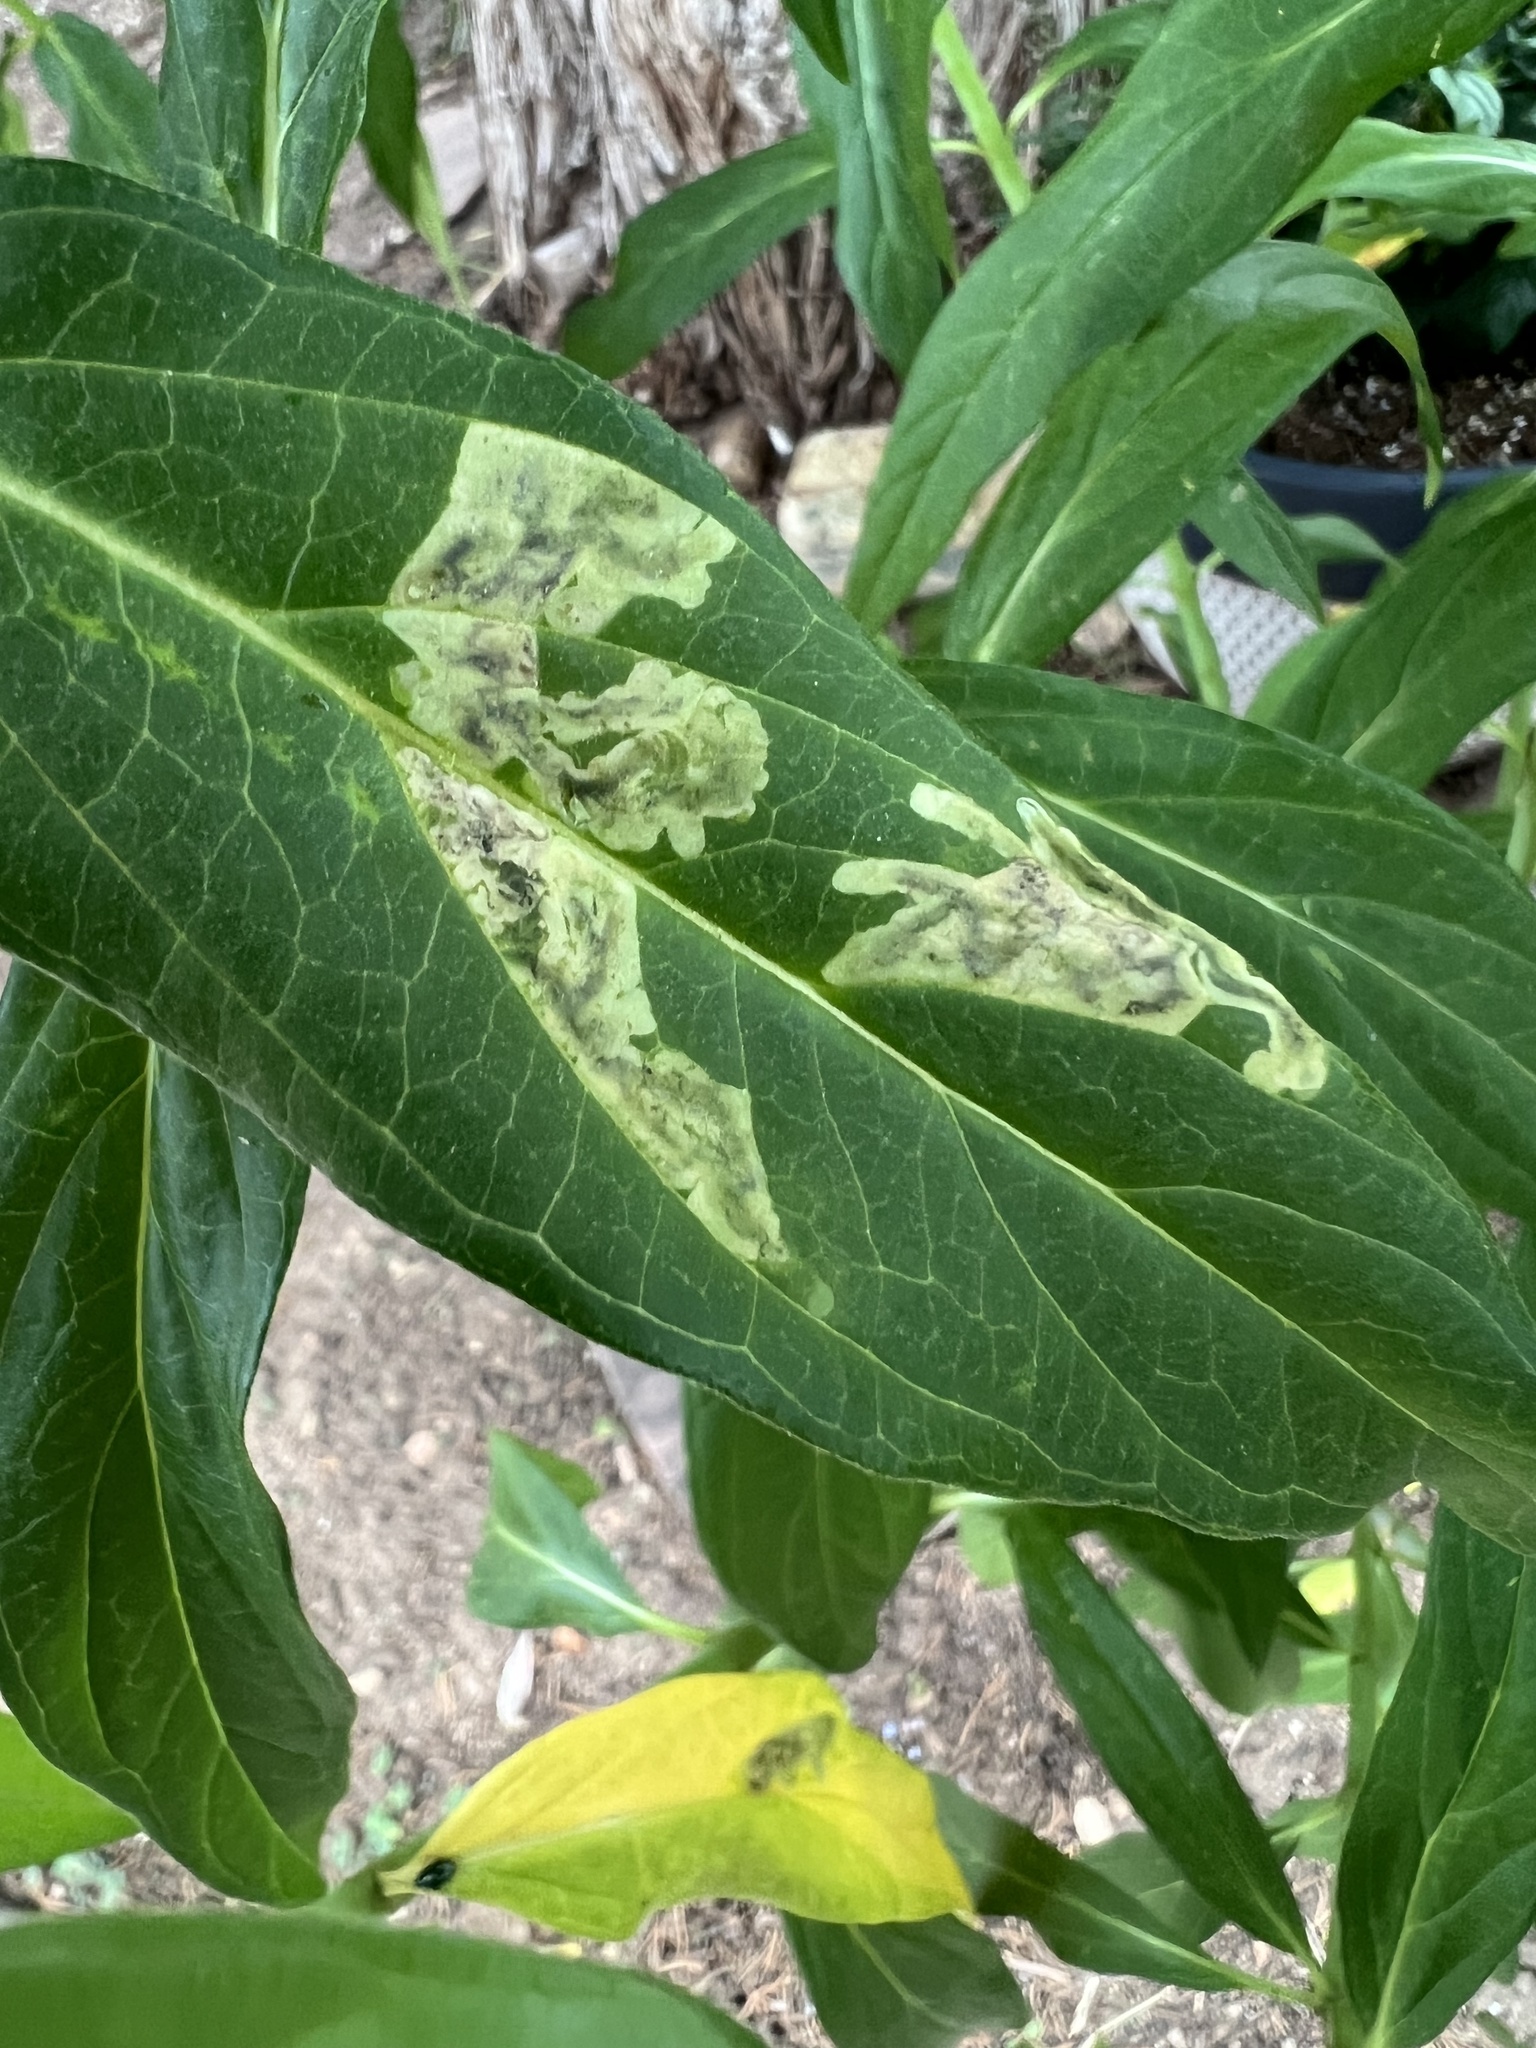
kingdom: Animalia
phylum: Arthropoda
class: Insecta
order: Diptera
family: Agromyzidae
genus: Liriomyza
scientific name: Liriomyza asclepiadis
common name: Milkweed leaf-miner fly
